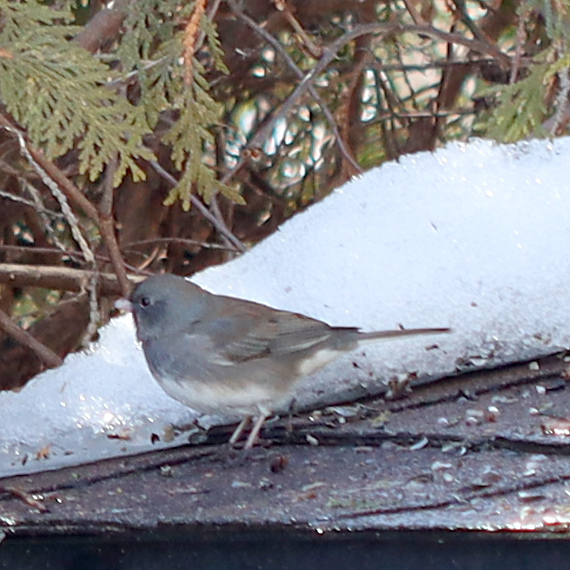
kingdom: Animalia
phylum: Chordata
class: Aves
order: Passeriformes
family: Passerellidae
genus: Junco
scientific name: Junco hyemalis
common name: Dark-eyed junco
